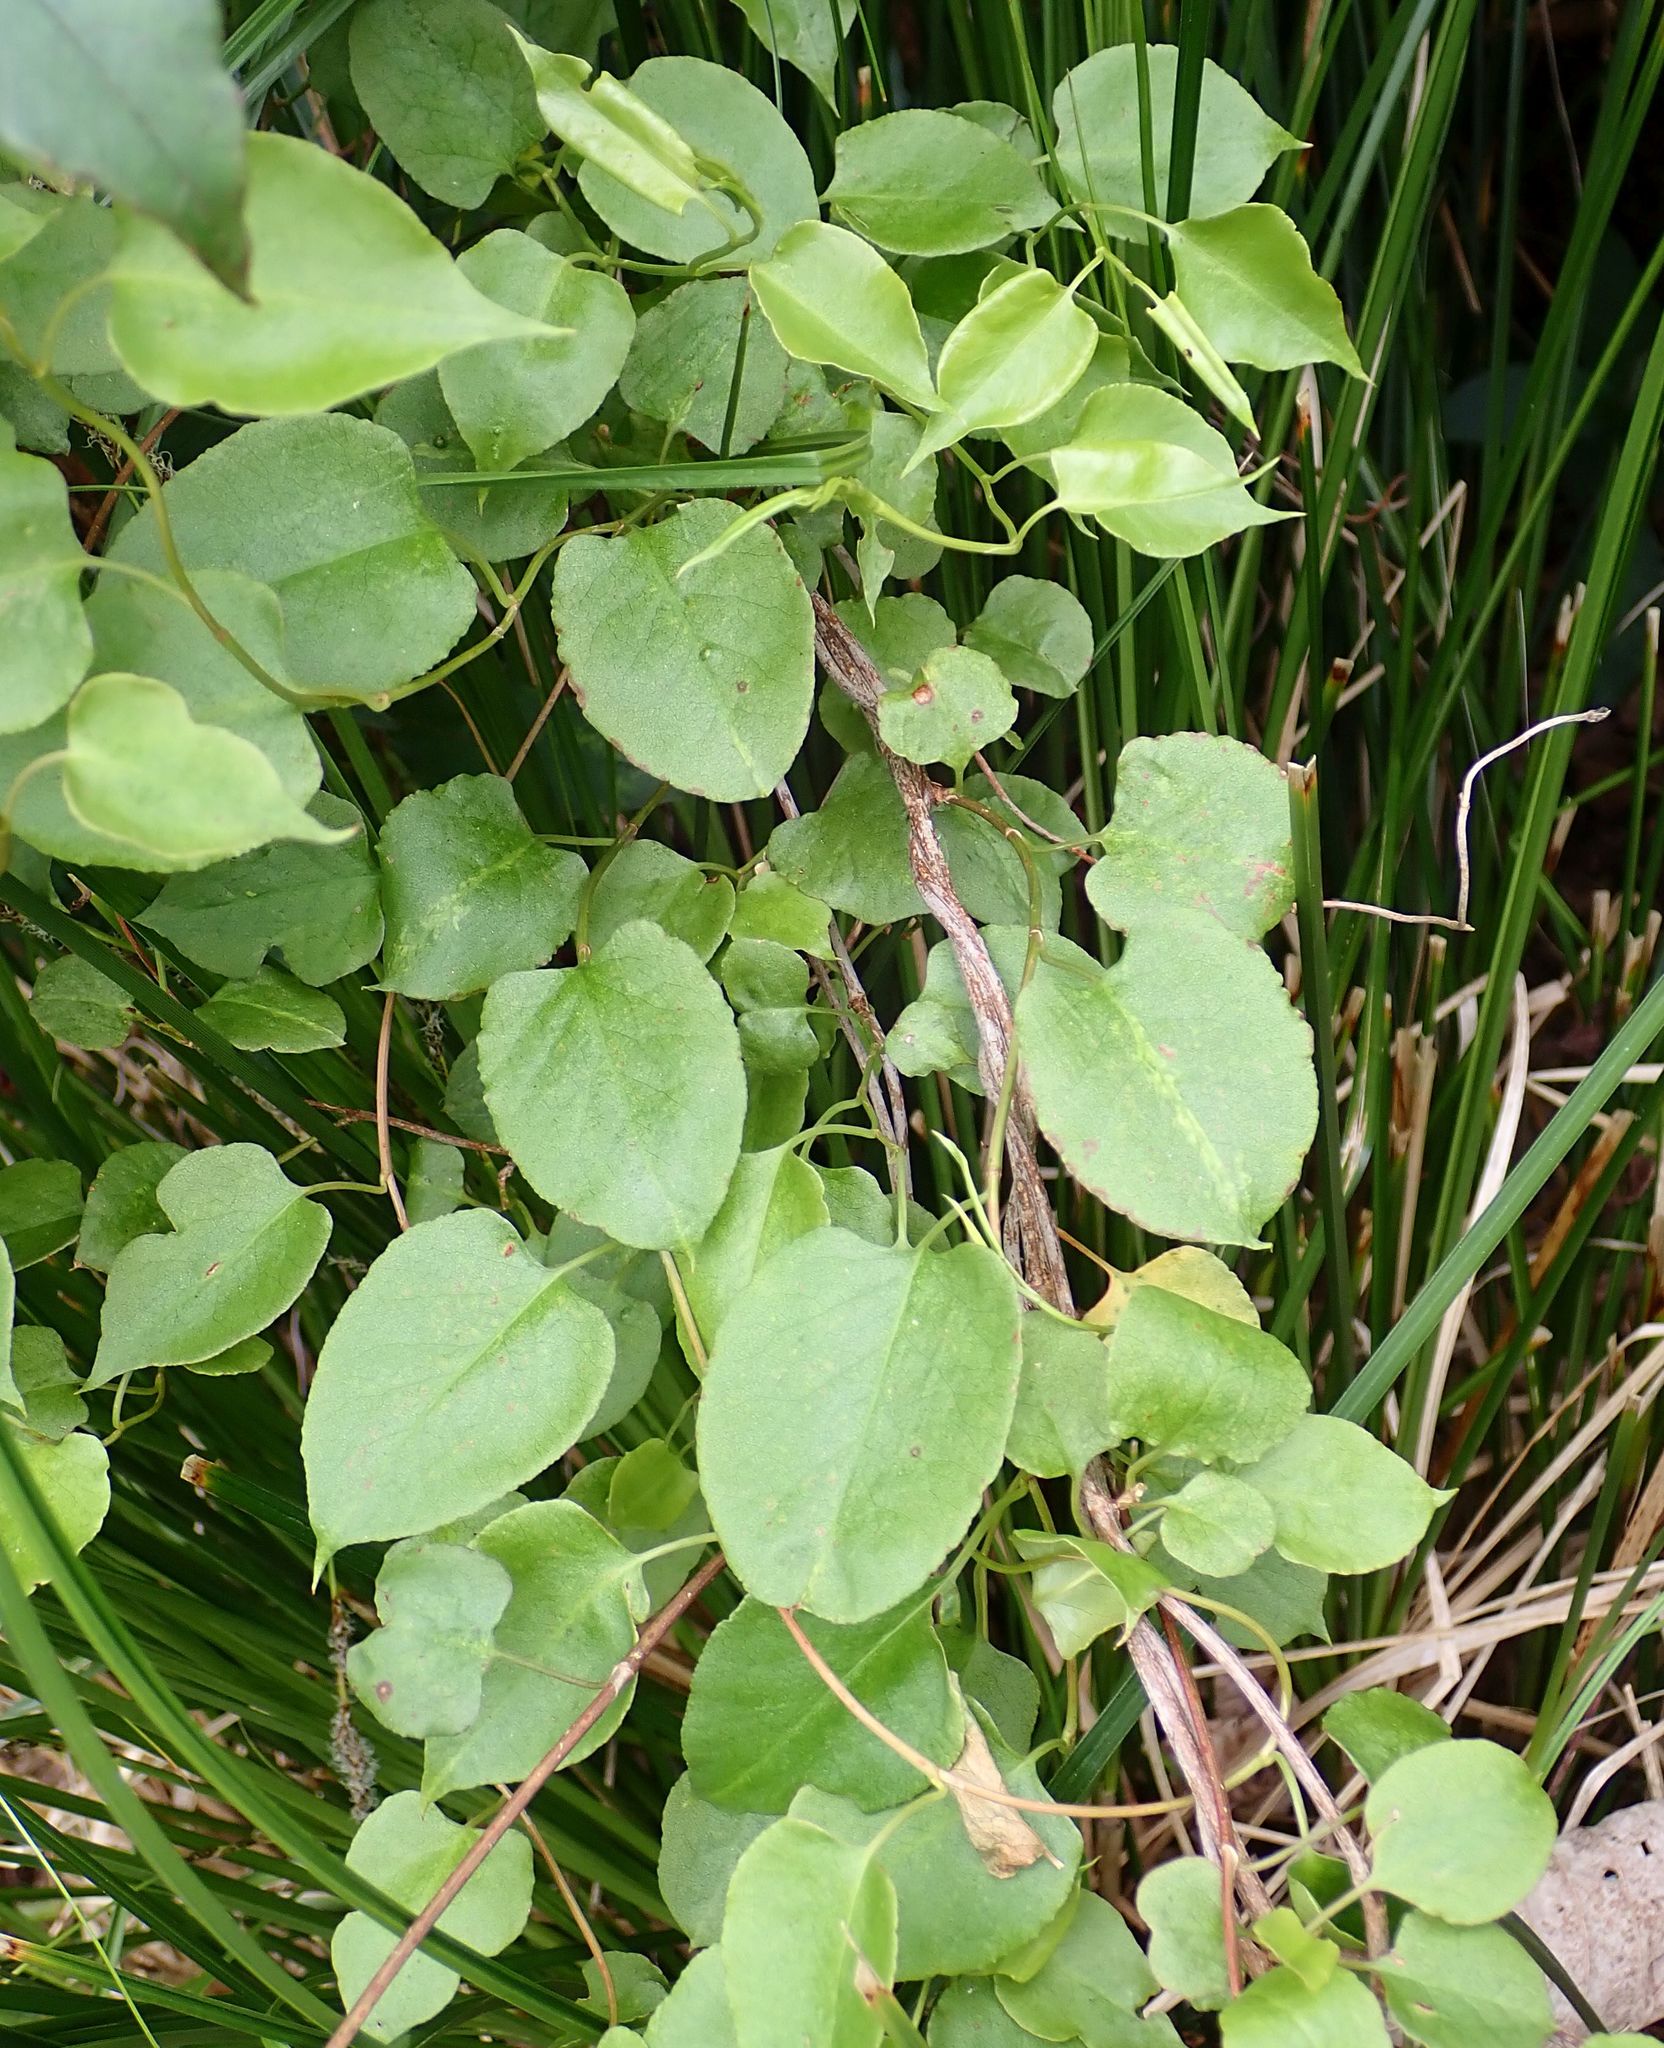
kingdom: Plantae
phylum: Tracheophyta
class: Magnoliopsida
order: Caryophyllales
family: Polygonaceae
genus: Muehlenbeckia
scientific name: Muehlenbeckia australis
